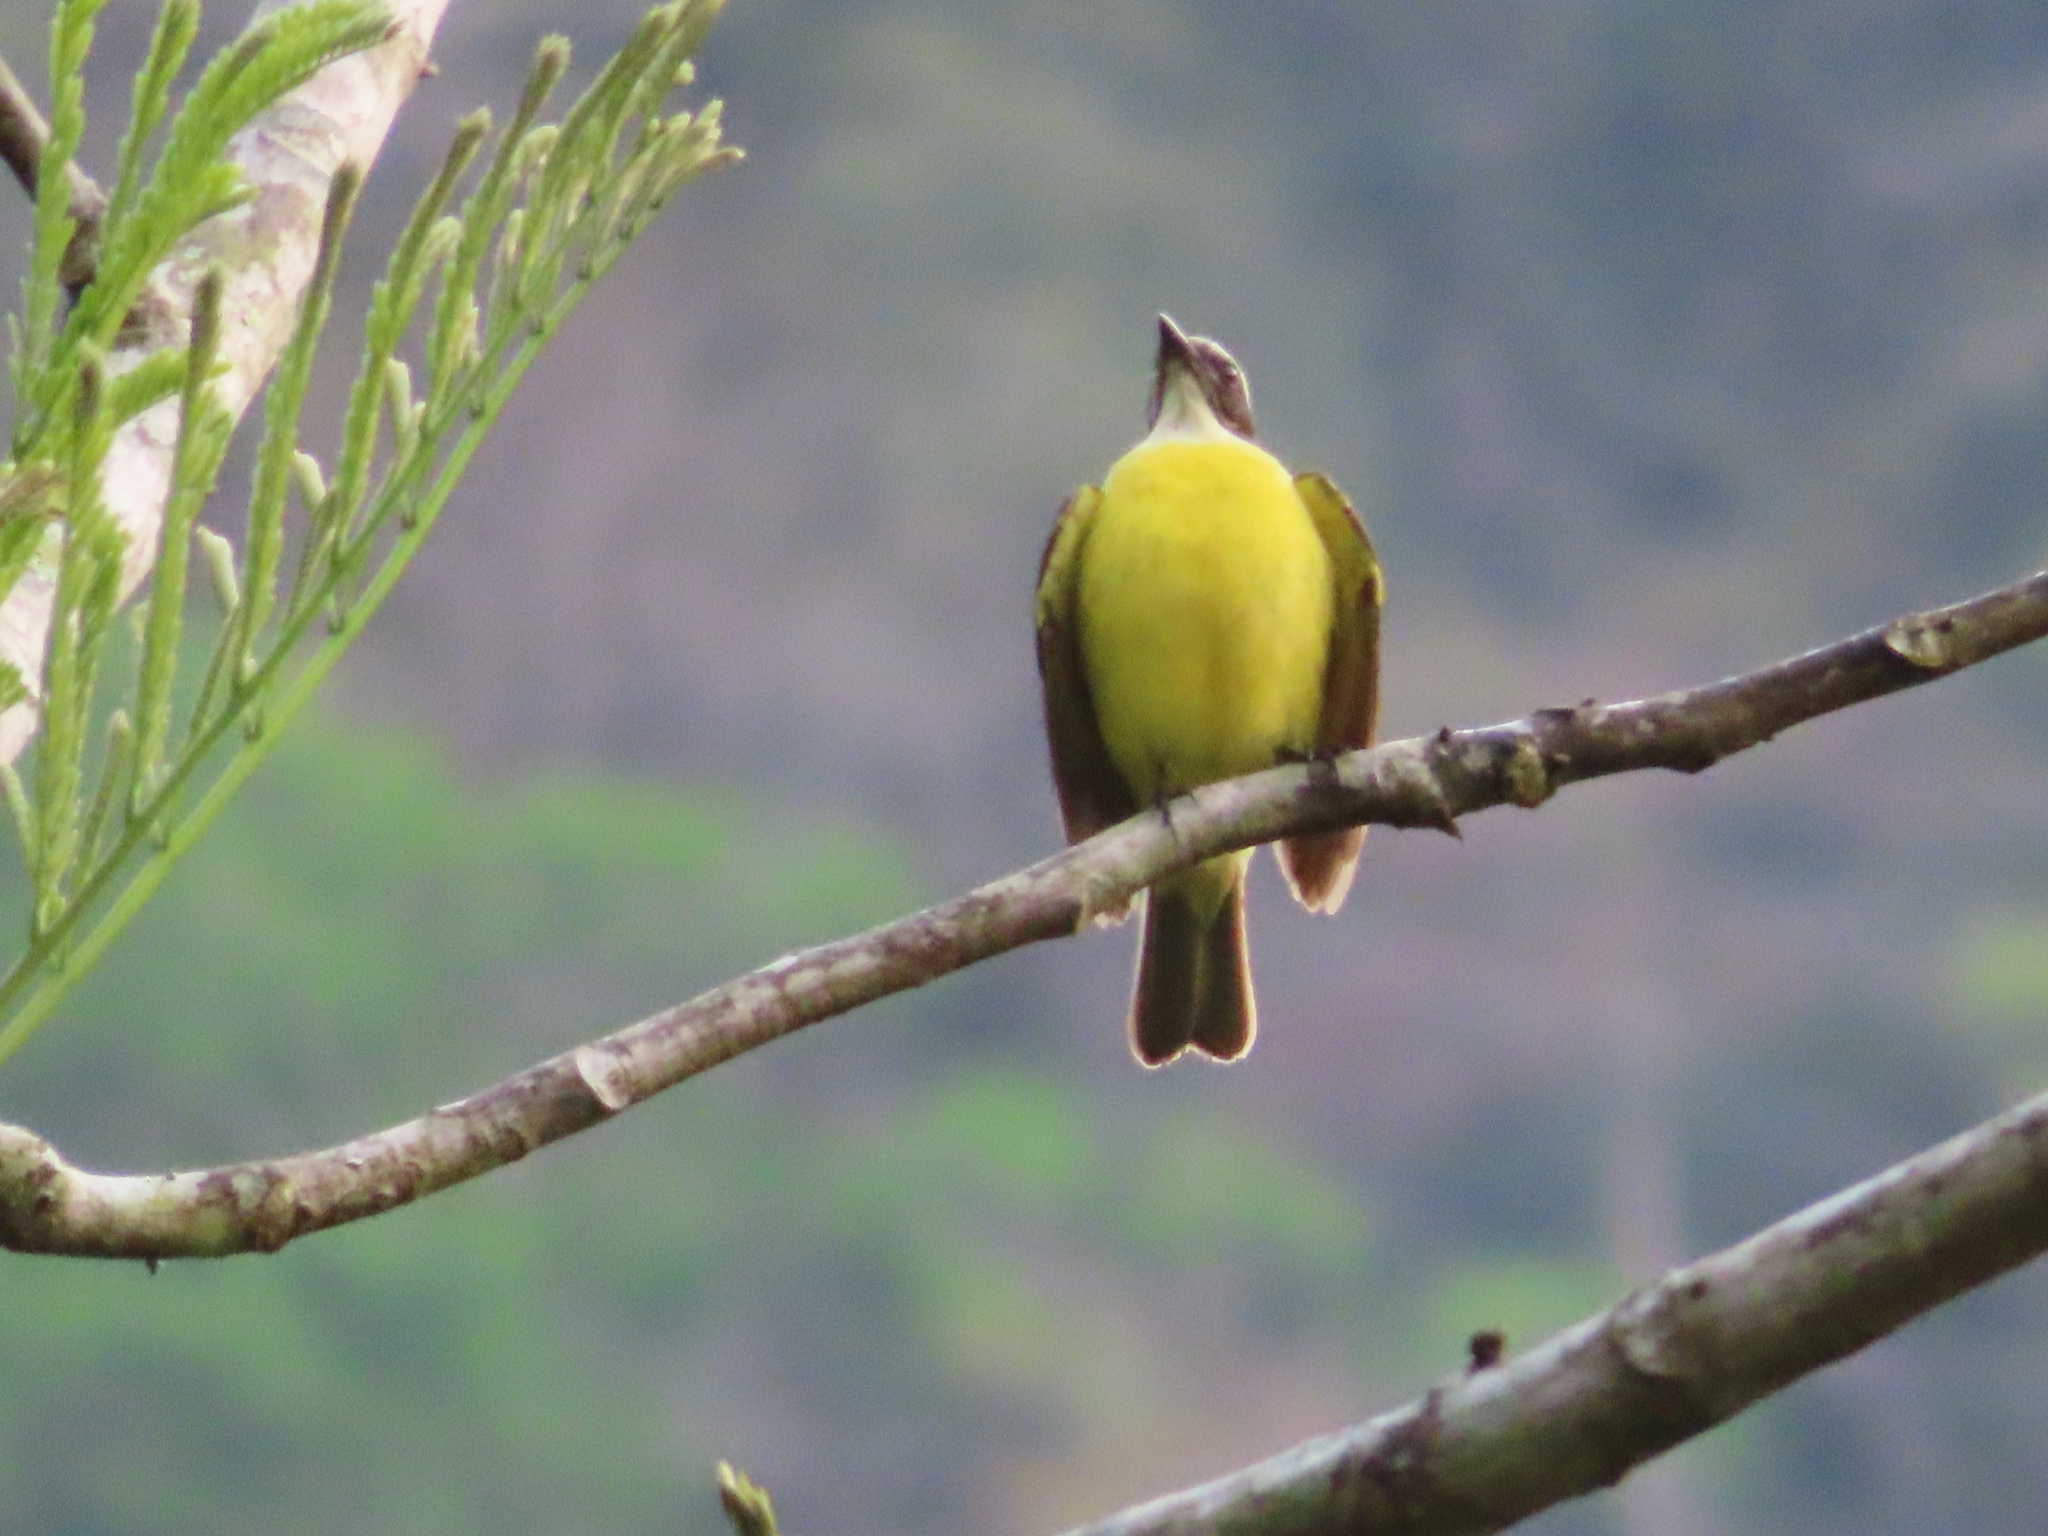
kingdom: Animalia
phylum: Chordata
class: Aves
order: Passeriformes
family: Tyrannidae
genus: Myiozetetes
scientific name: Myiozetetes similis
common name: Social flycatcher
